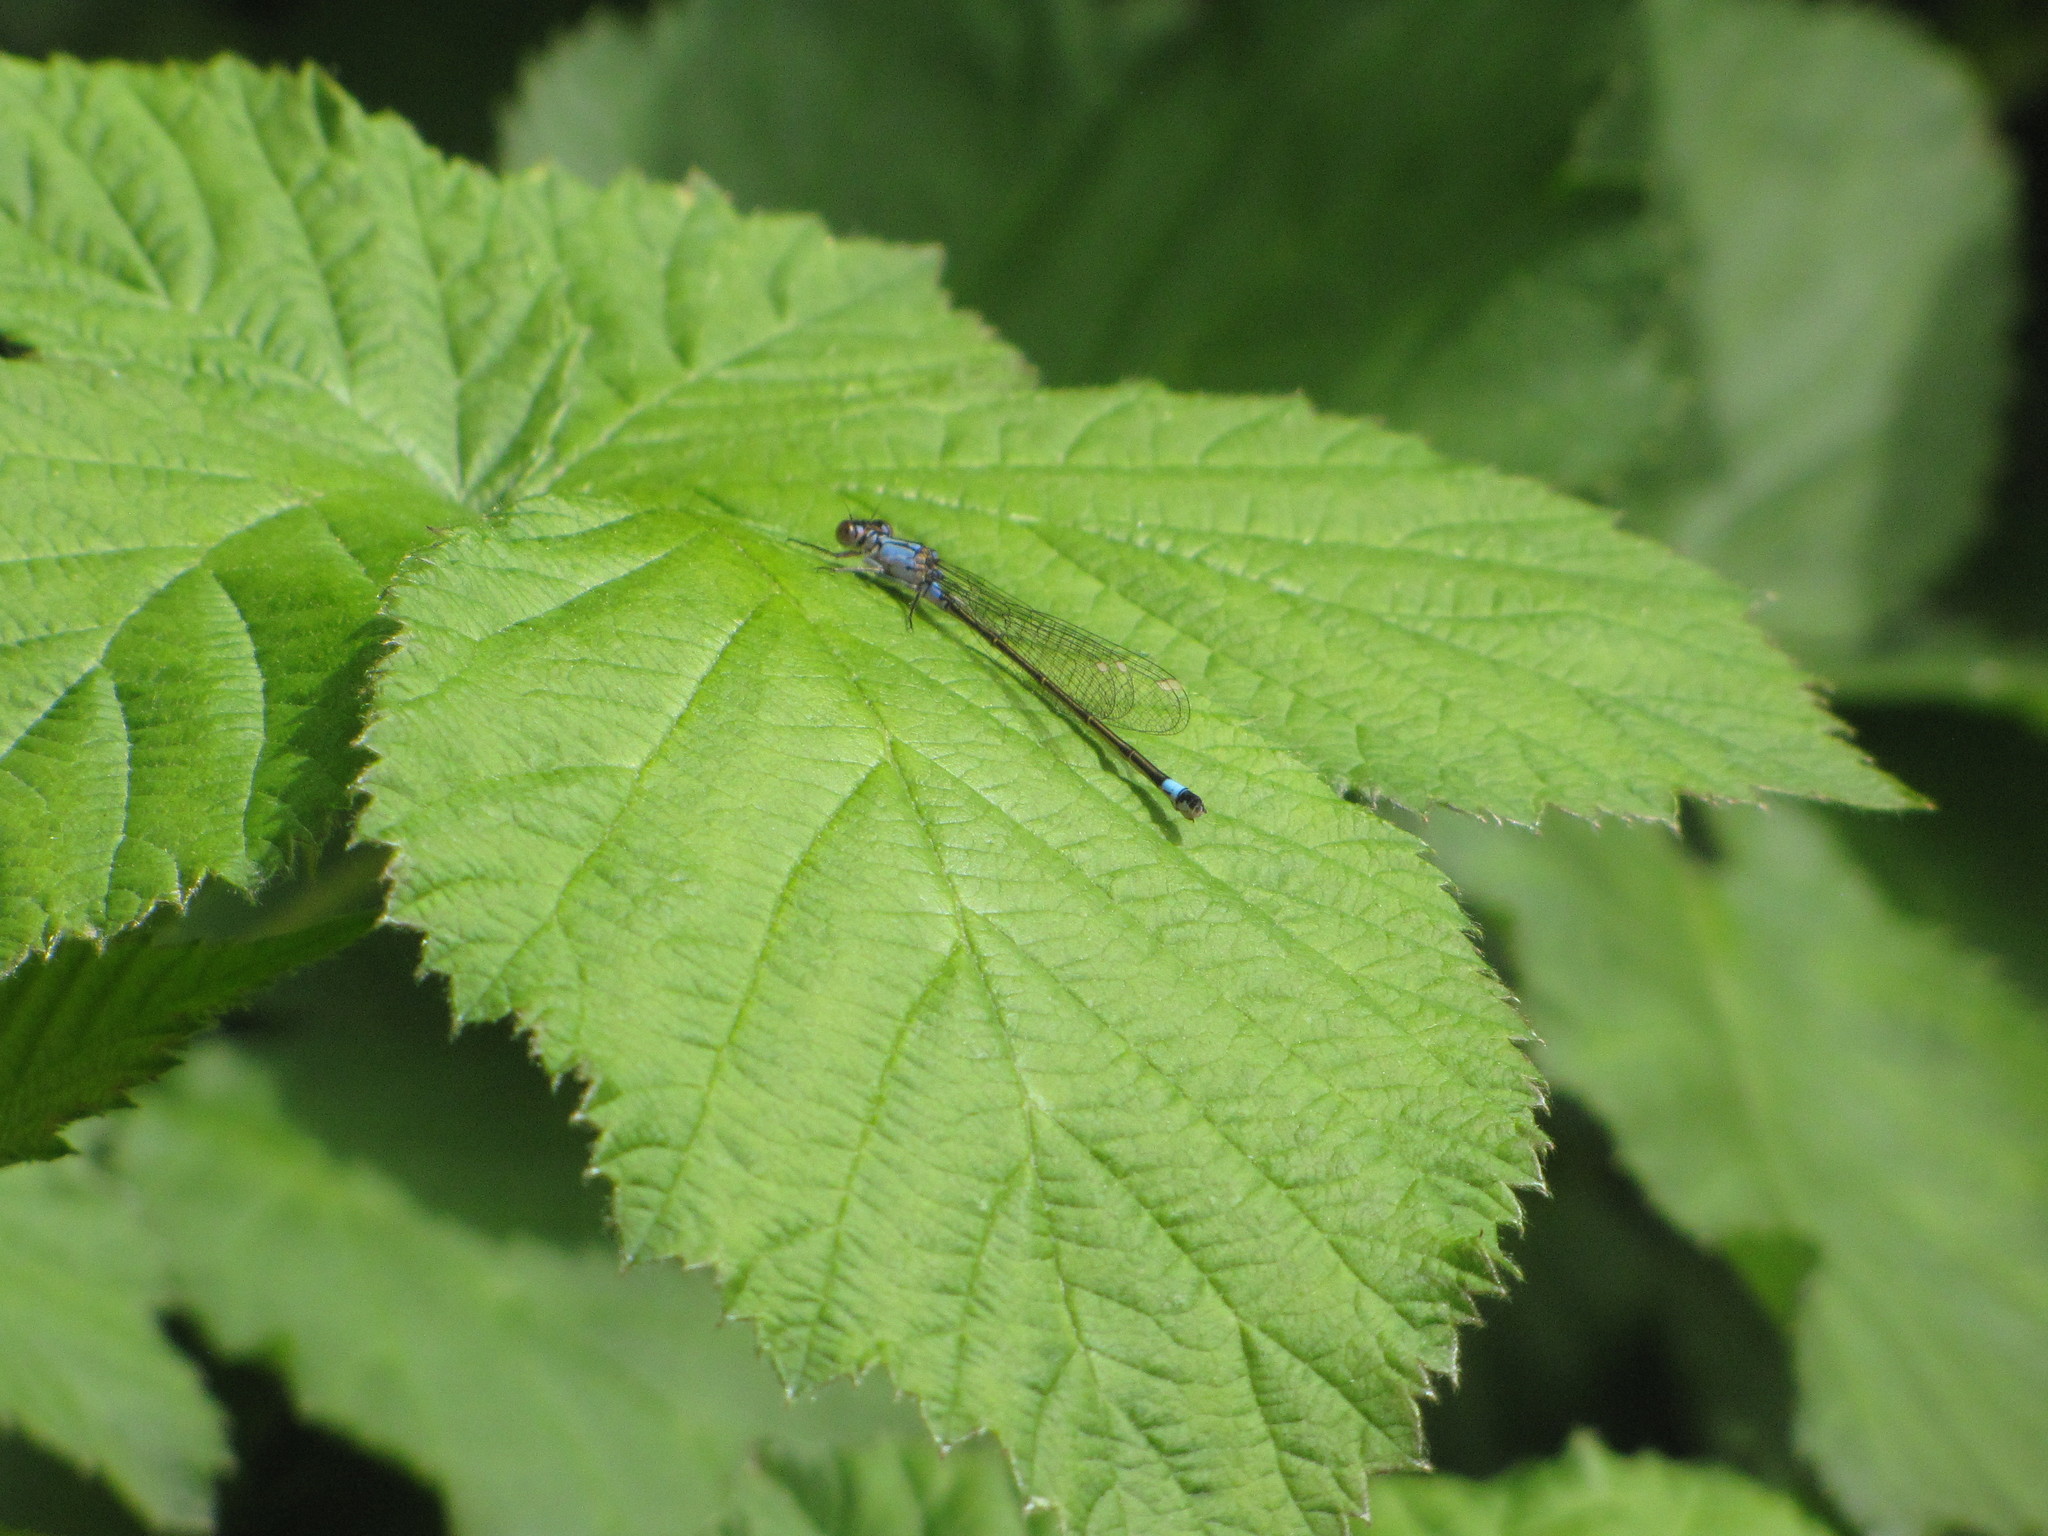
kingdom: Animalia
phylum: Arthropoda
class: Insecta
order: Odonata
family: Coenagrionidae
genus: Ischnura
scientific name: Ischnura cervula
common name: Pacific forktail
